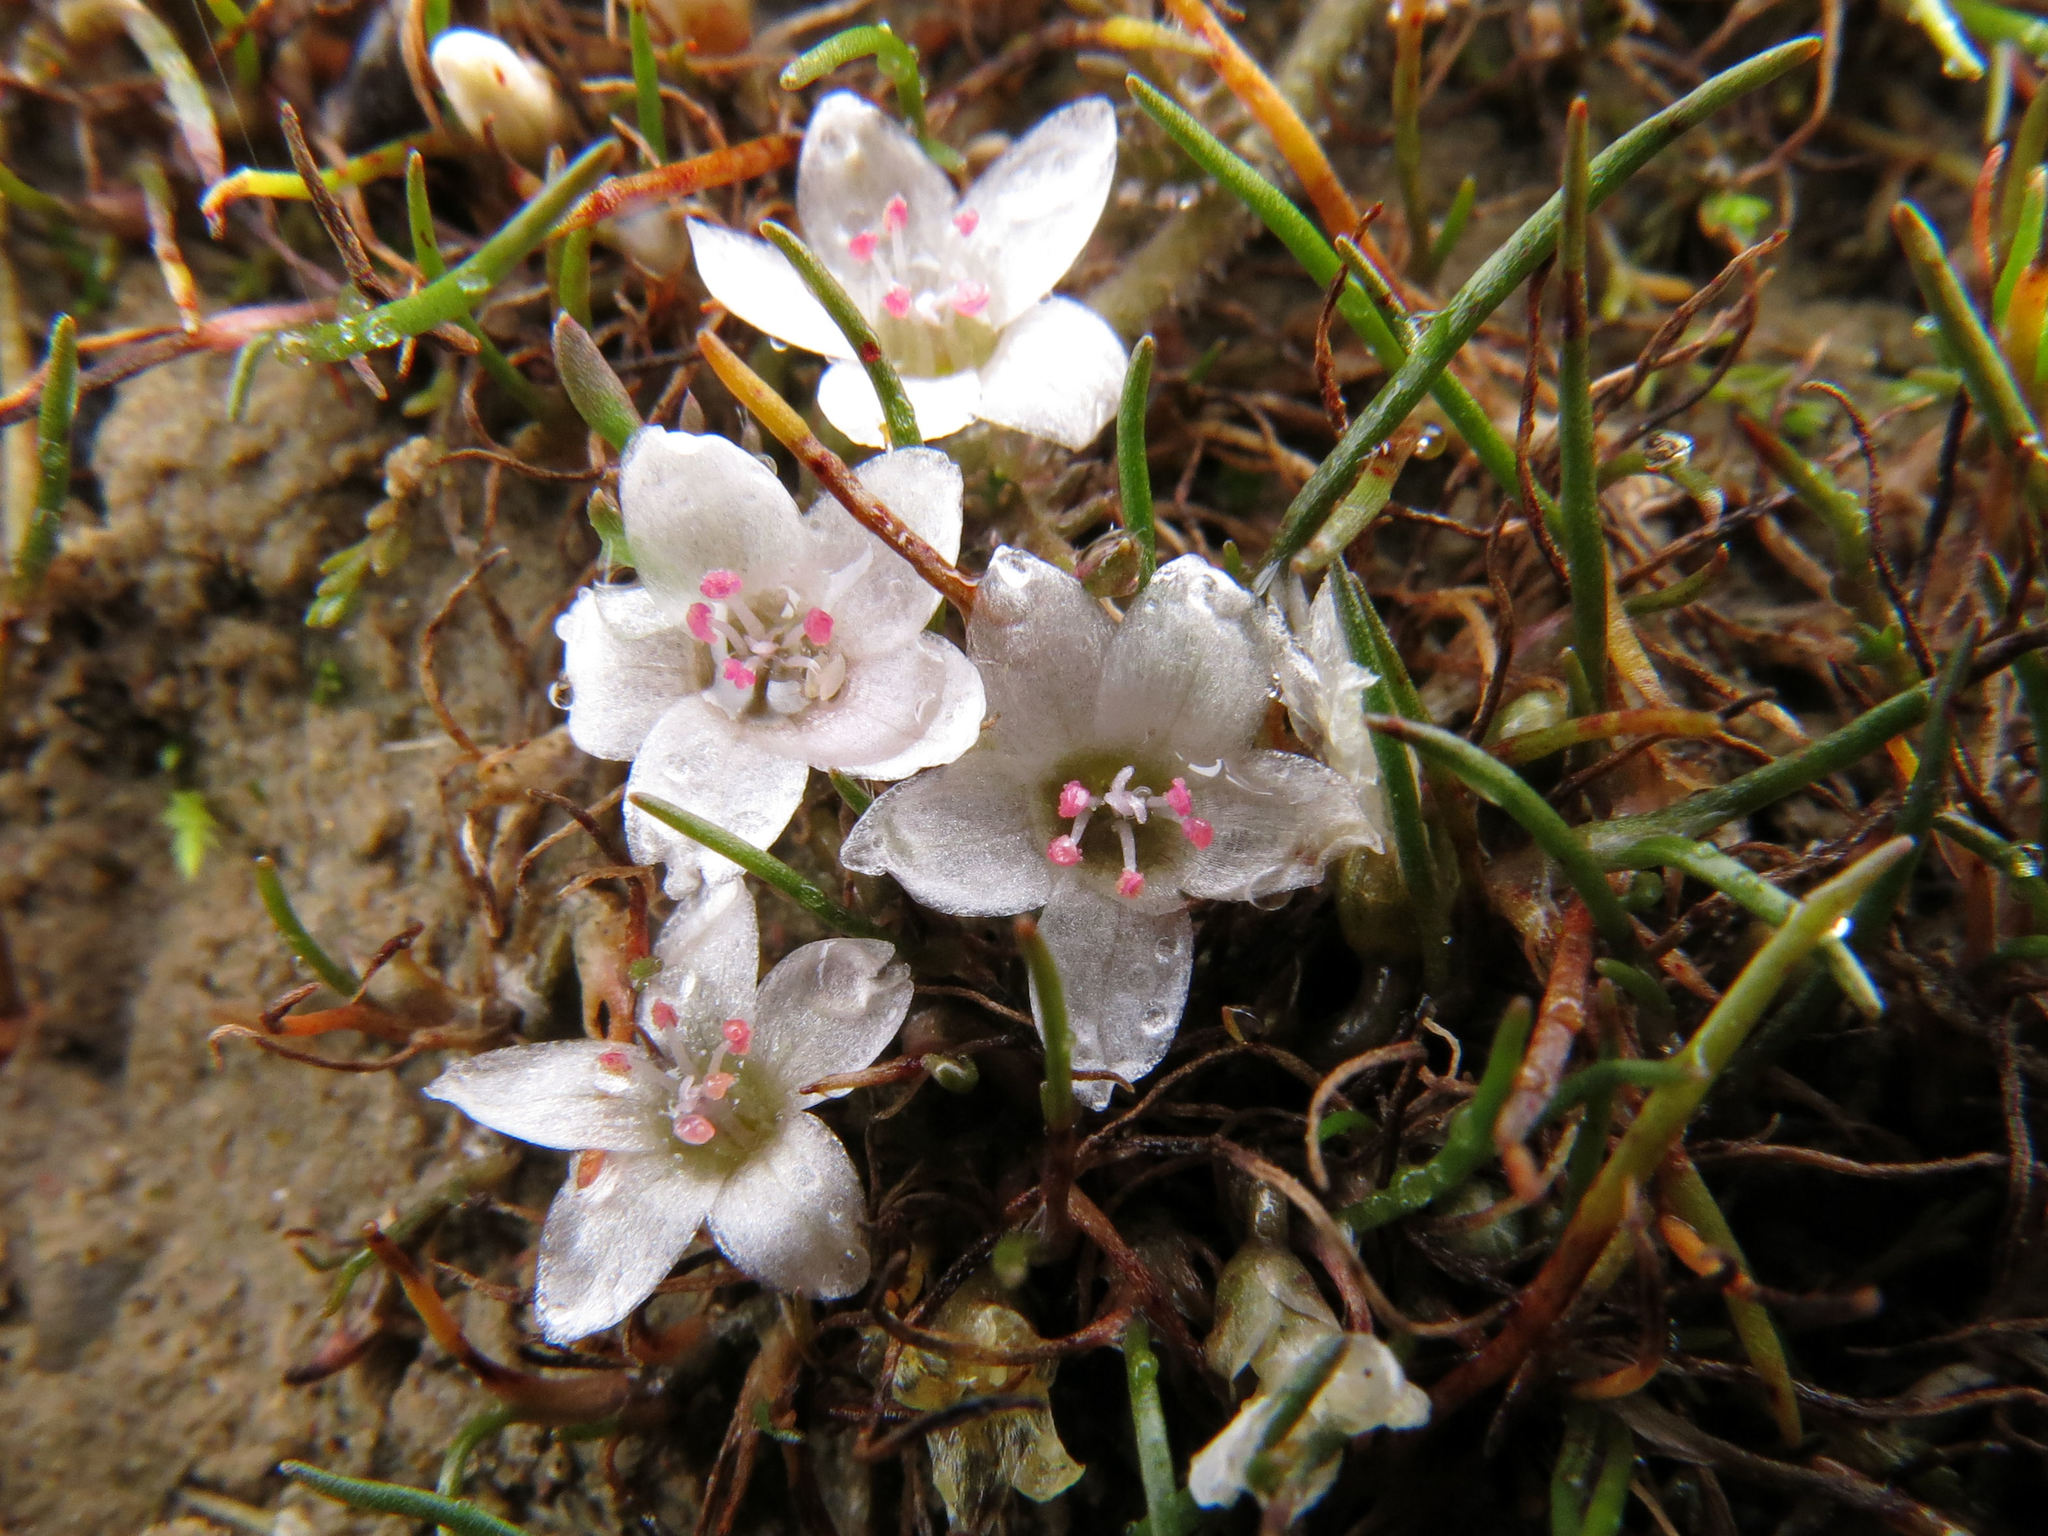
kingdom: Plantae
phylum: Tracheophyta
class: Magnoliopsida
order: Caryophyllales
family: Montiaceae
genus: Montia
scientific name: Montia angustifolia
